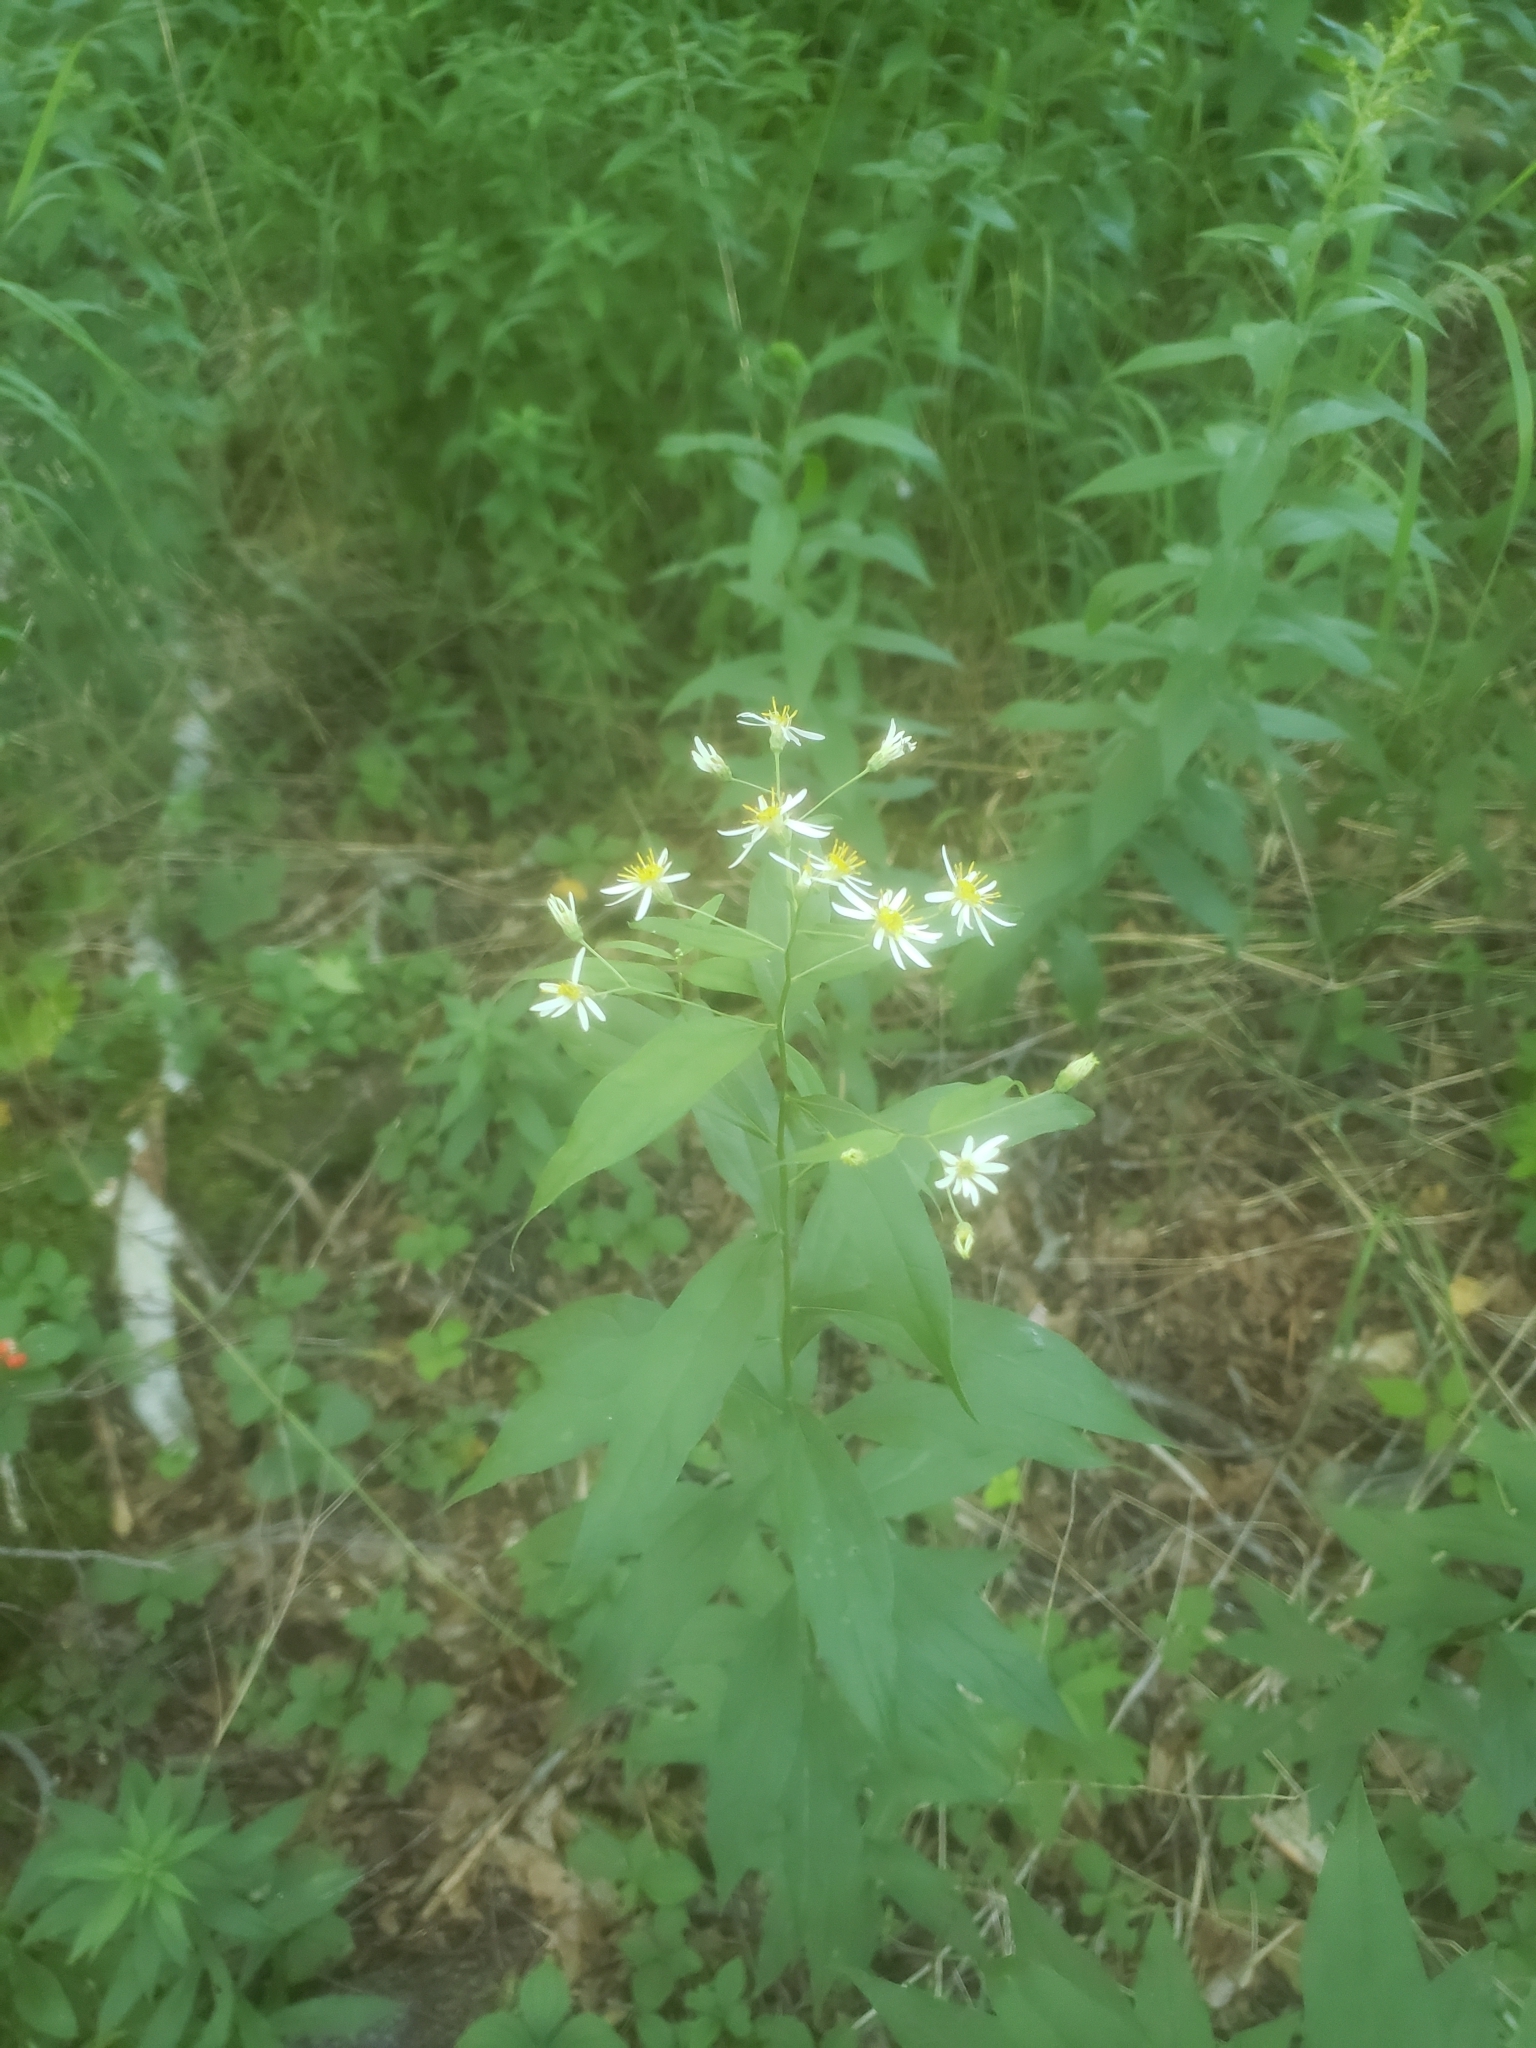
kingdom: Plantae
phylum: Tracheophyta
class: Magnoliopsida
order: Asterales
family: Asteraceae
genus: Doellingeria
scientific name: Doellingeria umbellata
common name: Flat-top white aster
